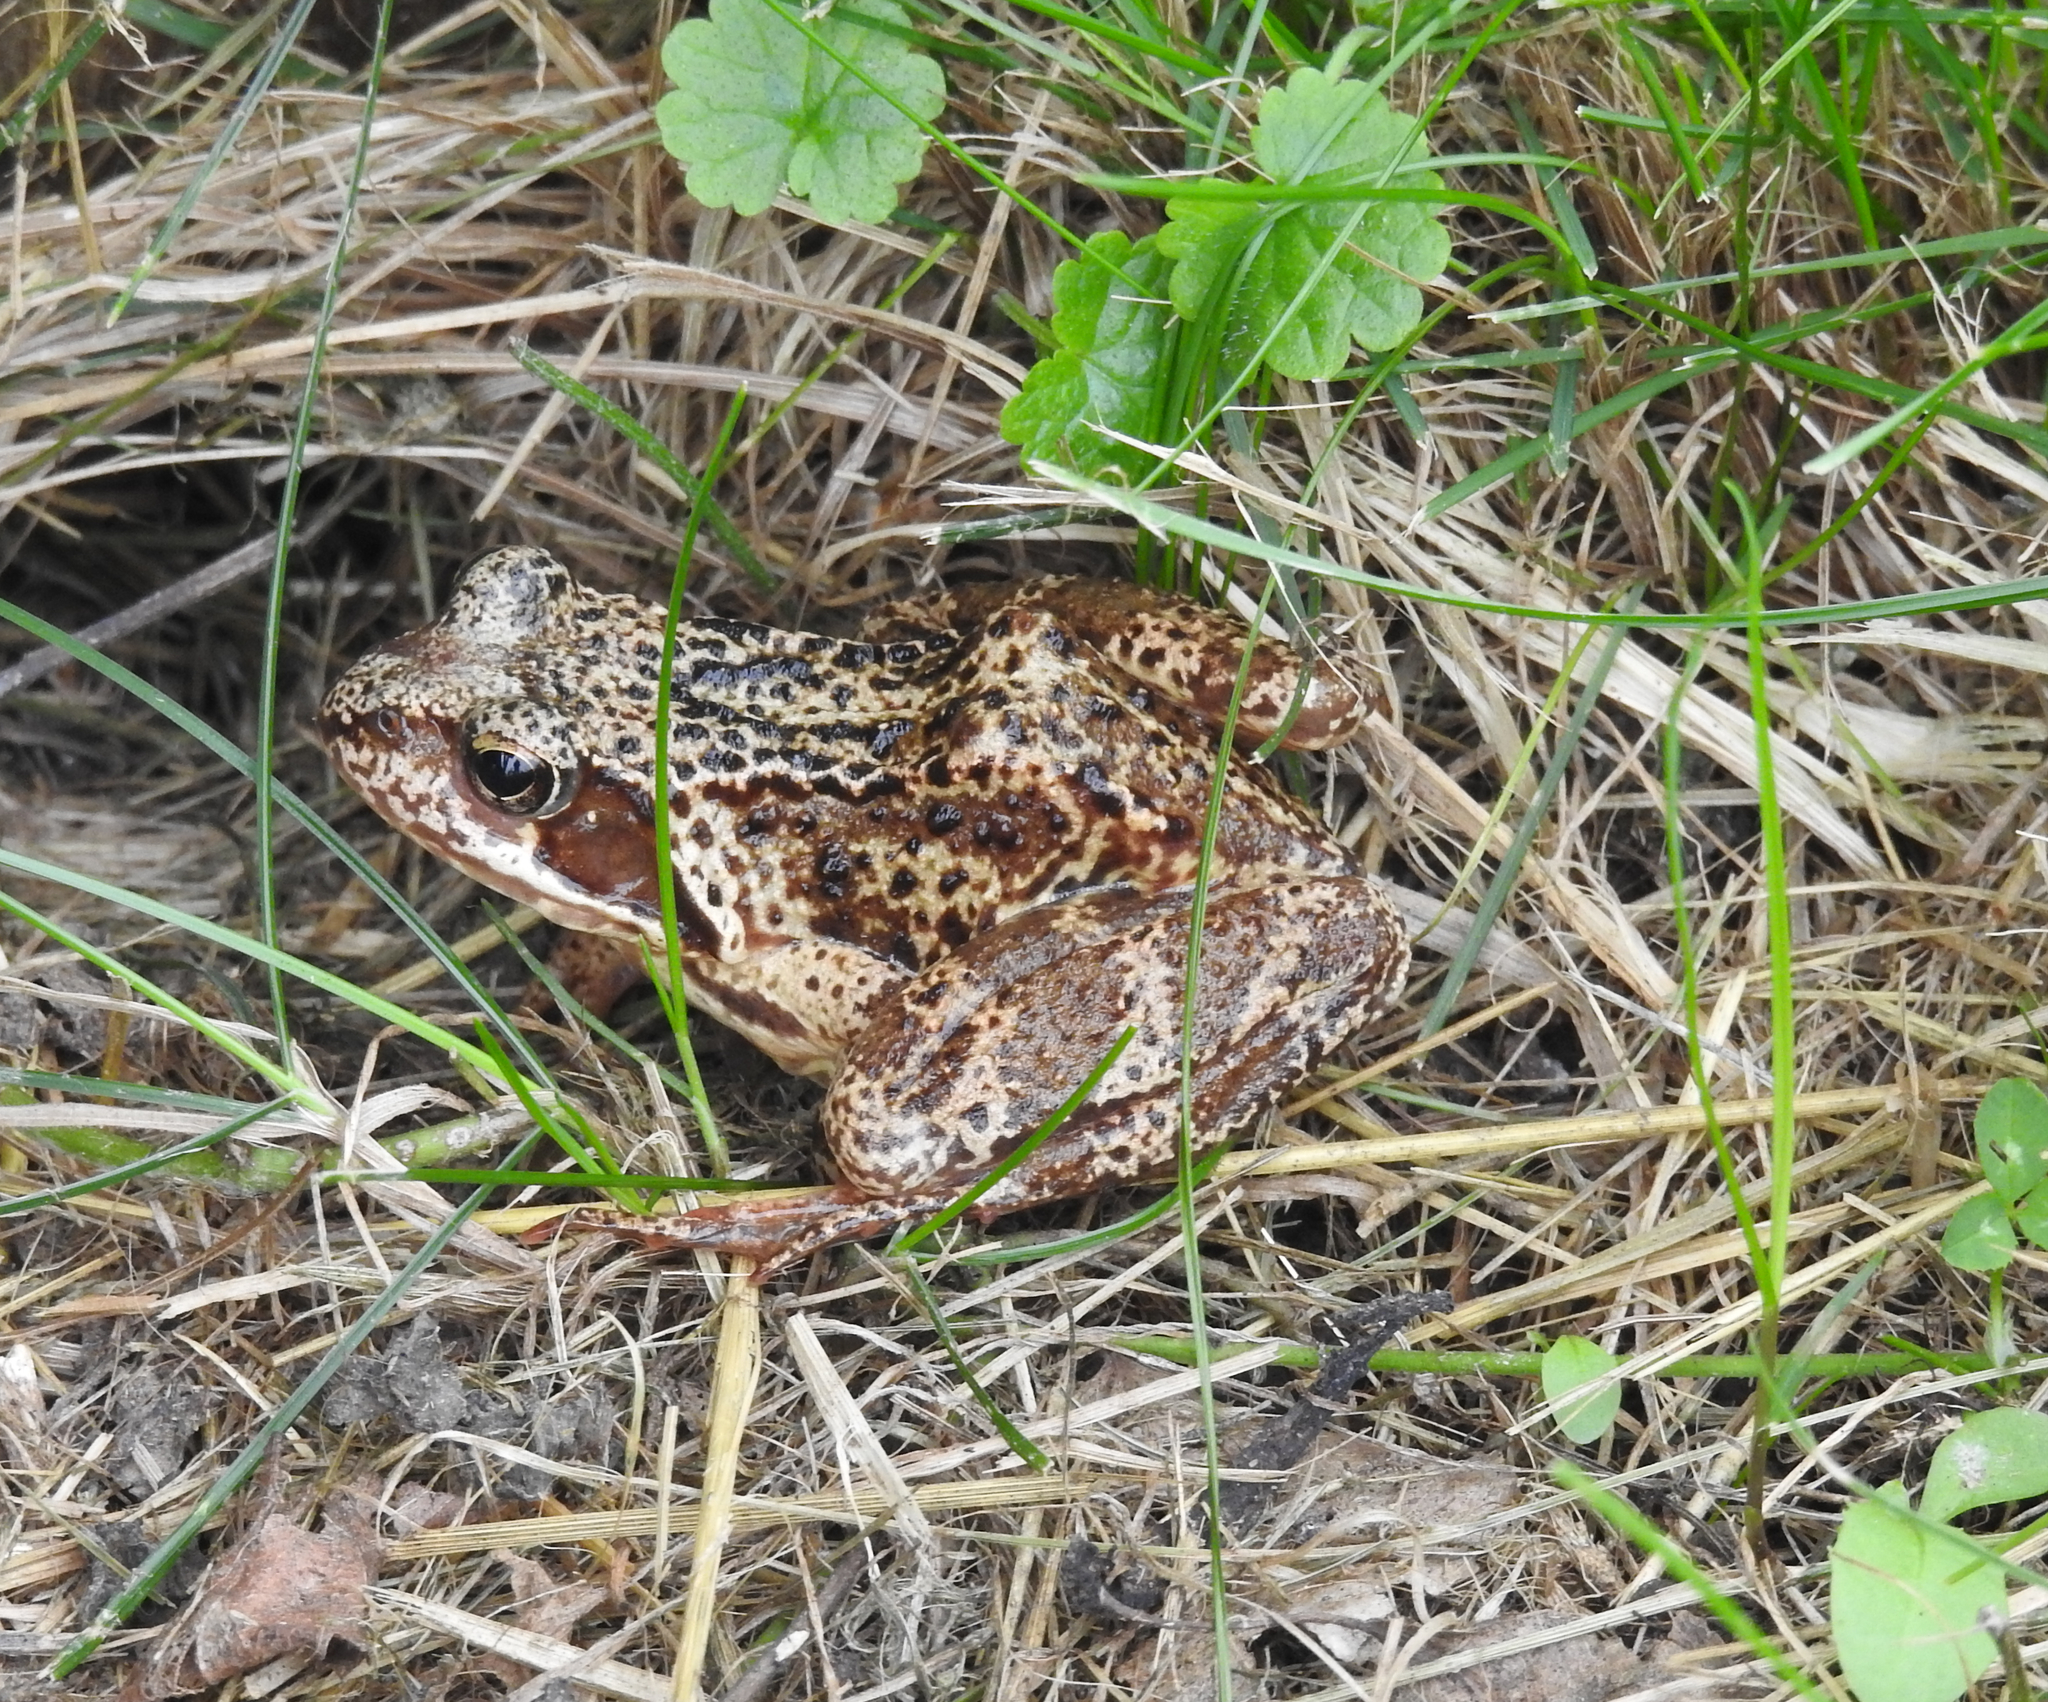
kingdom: Animalia
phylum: Chordata
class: Amphibia
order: Anura
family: Ranidae
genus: Rana
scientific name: Rana temporaria
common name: Common frog
